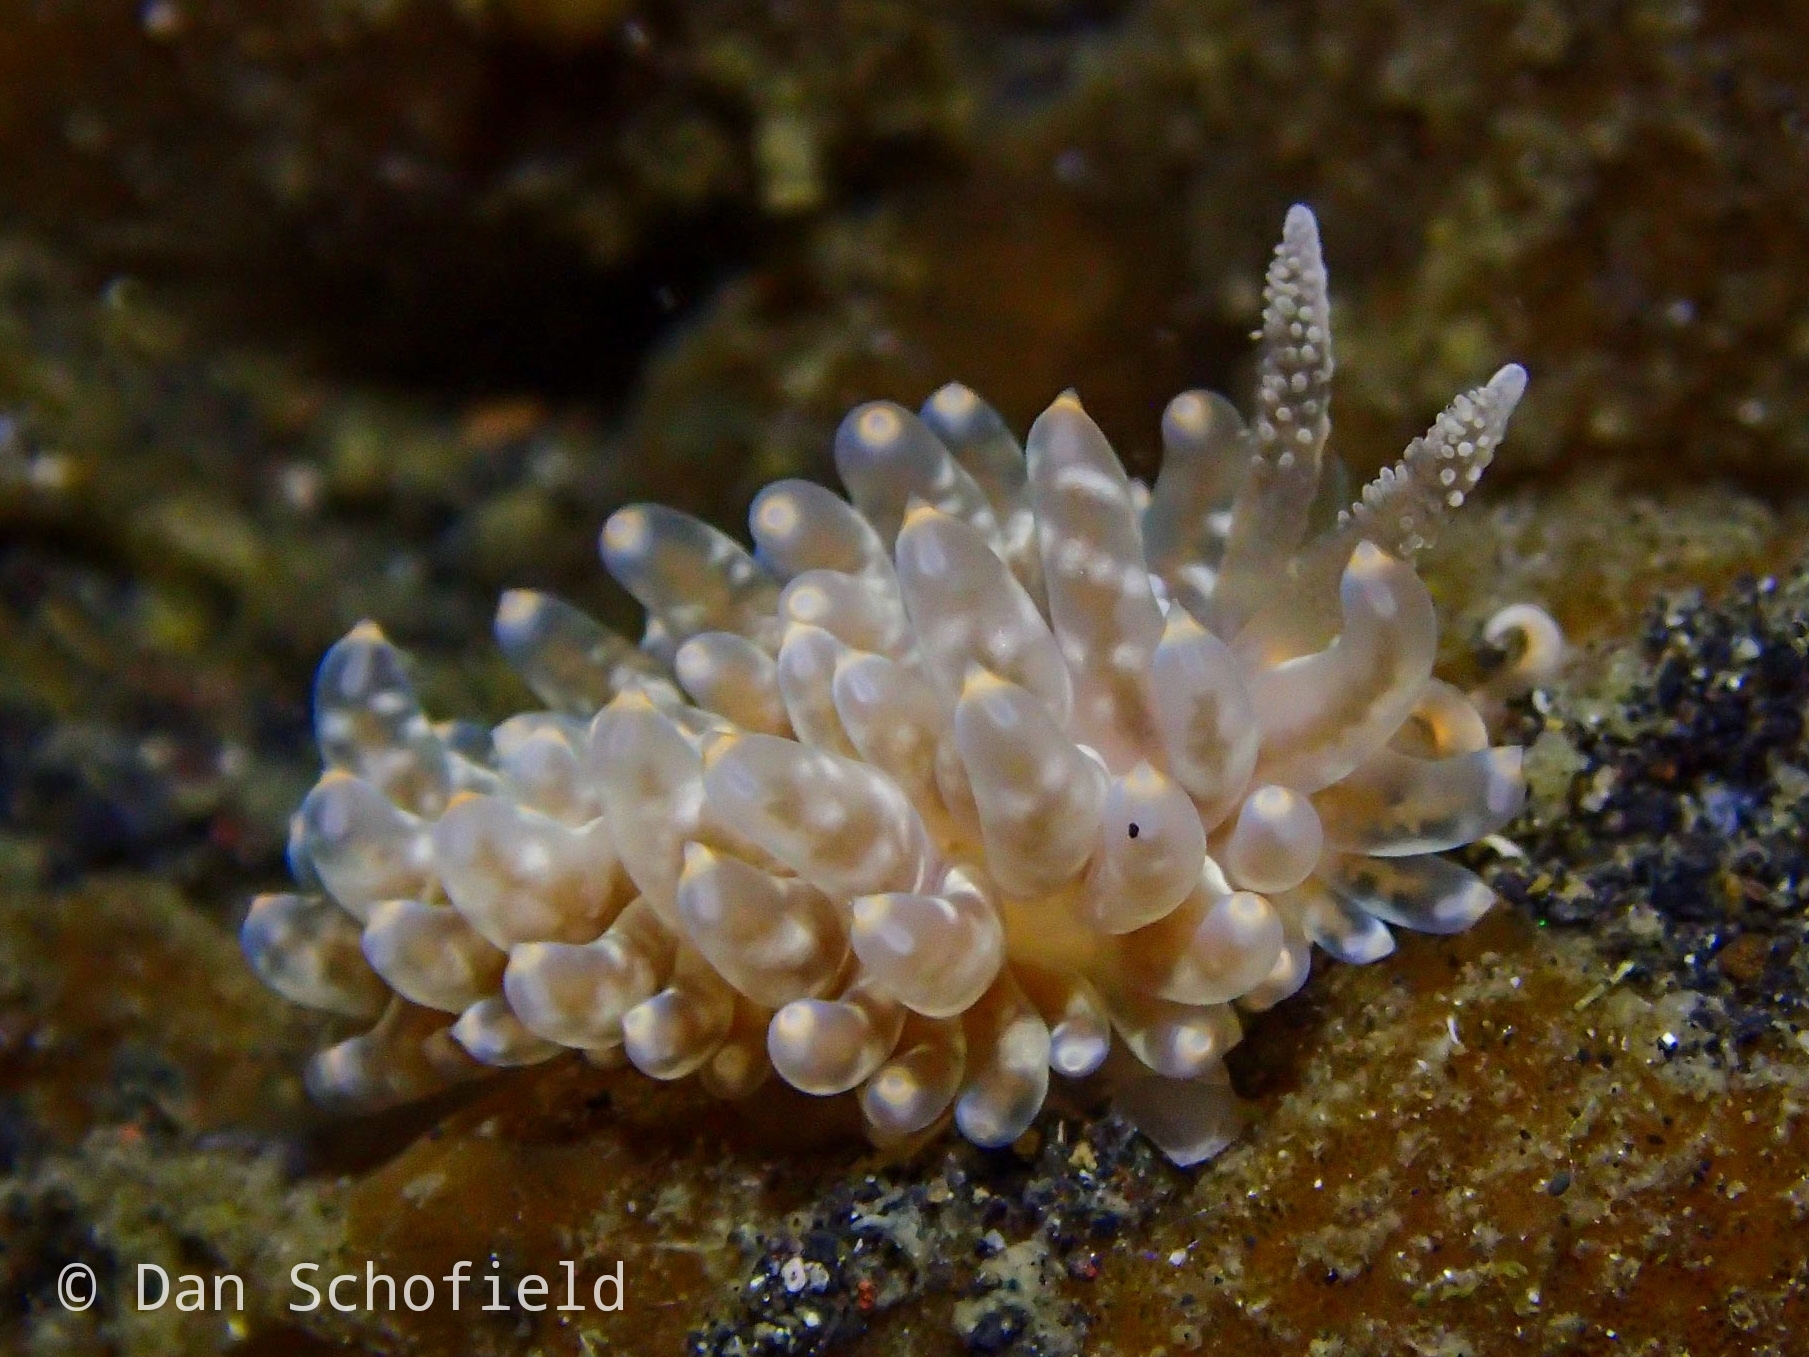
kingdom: Animalia
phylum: Mollusca
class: Gastropoda
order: Nudibranchia
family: Aeolidiidae
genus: Baeolidia
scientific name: Baeolidia moebii
